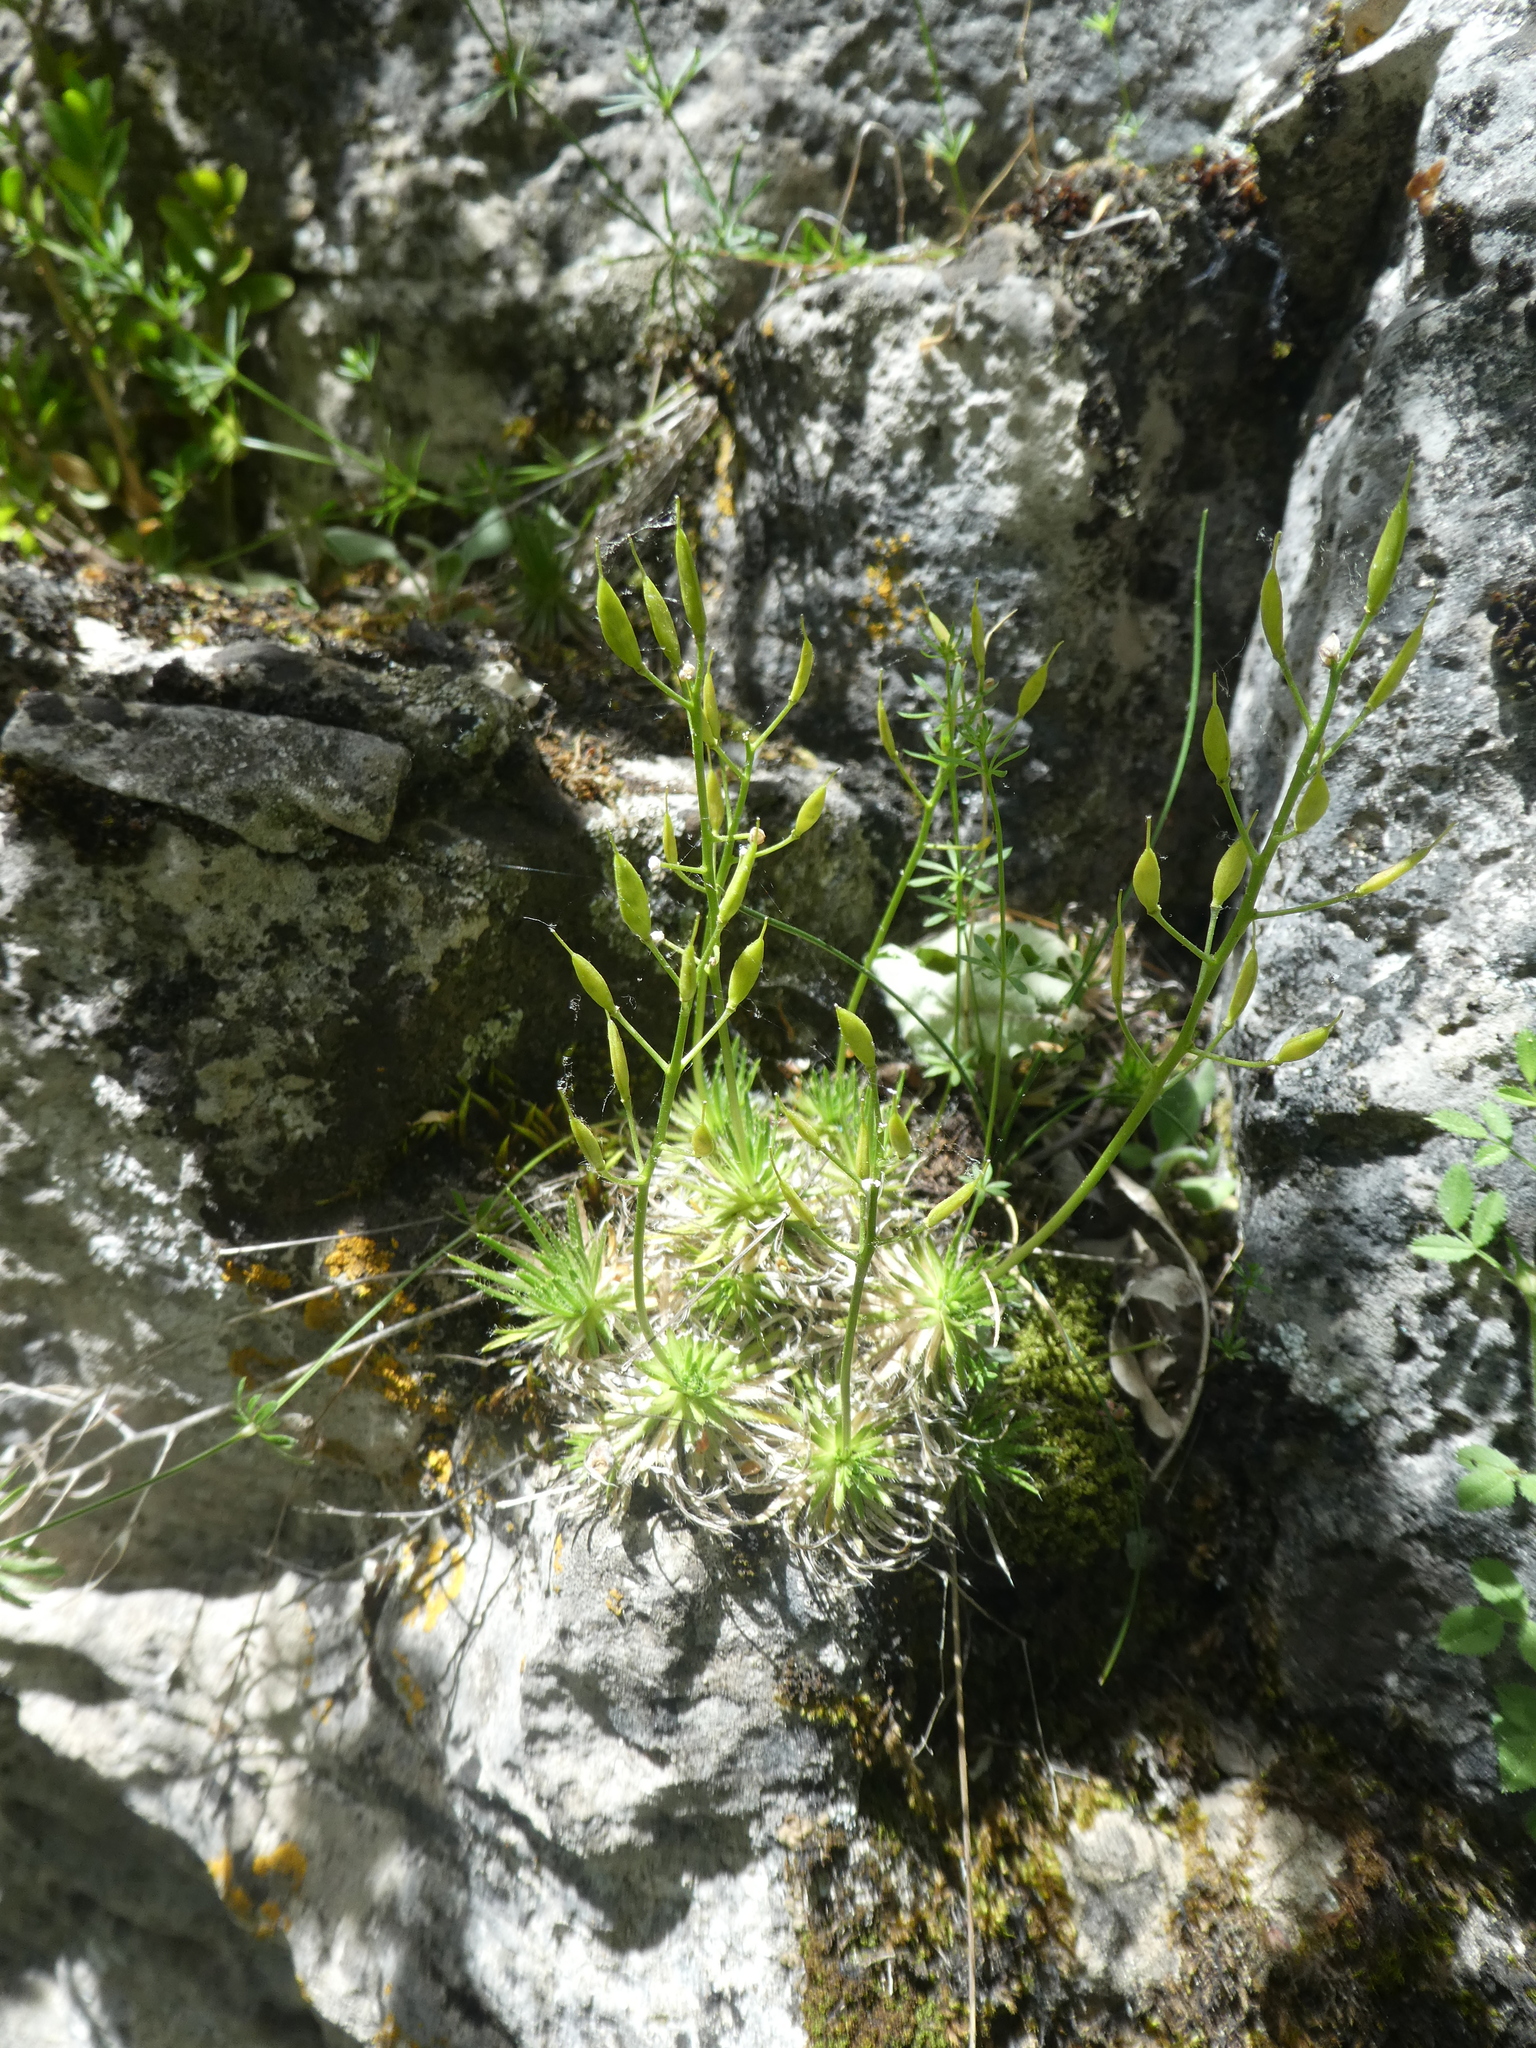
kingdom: Plantae
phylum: Tracheophyta
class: Magnoliopsida
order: Brassicales
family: Brassicaceae
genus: Draba
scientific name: Draba aizoides
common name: Yellow whitlowgrass
